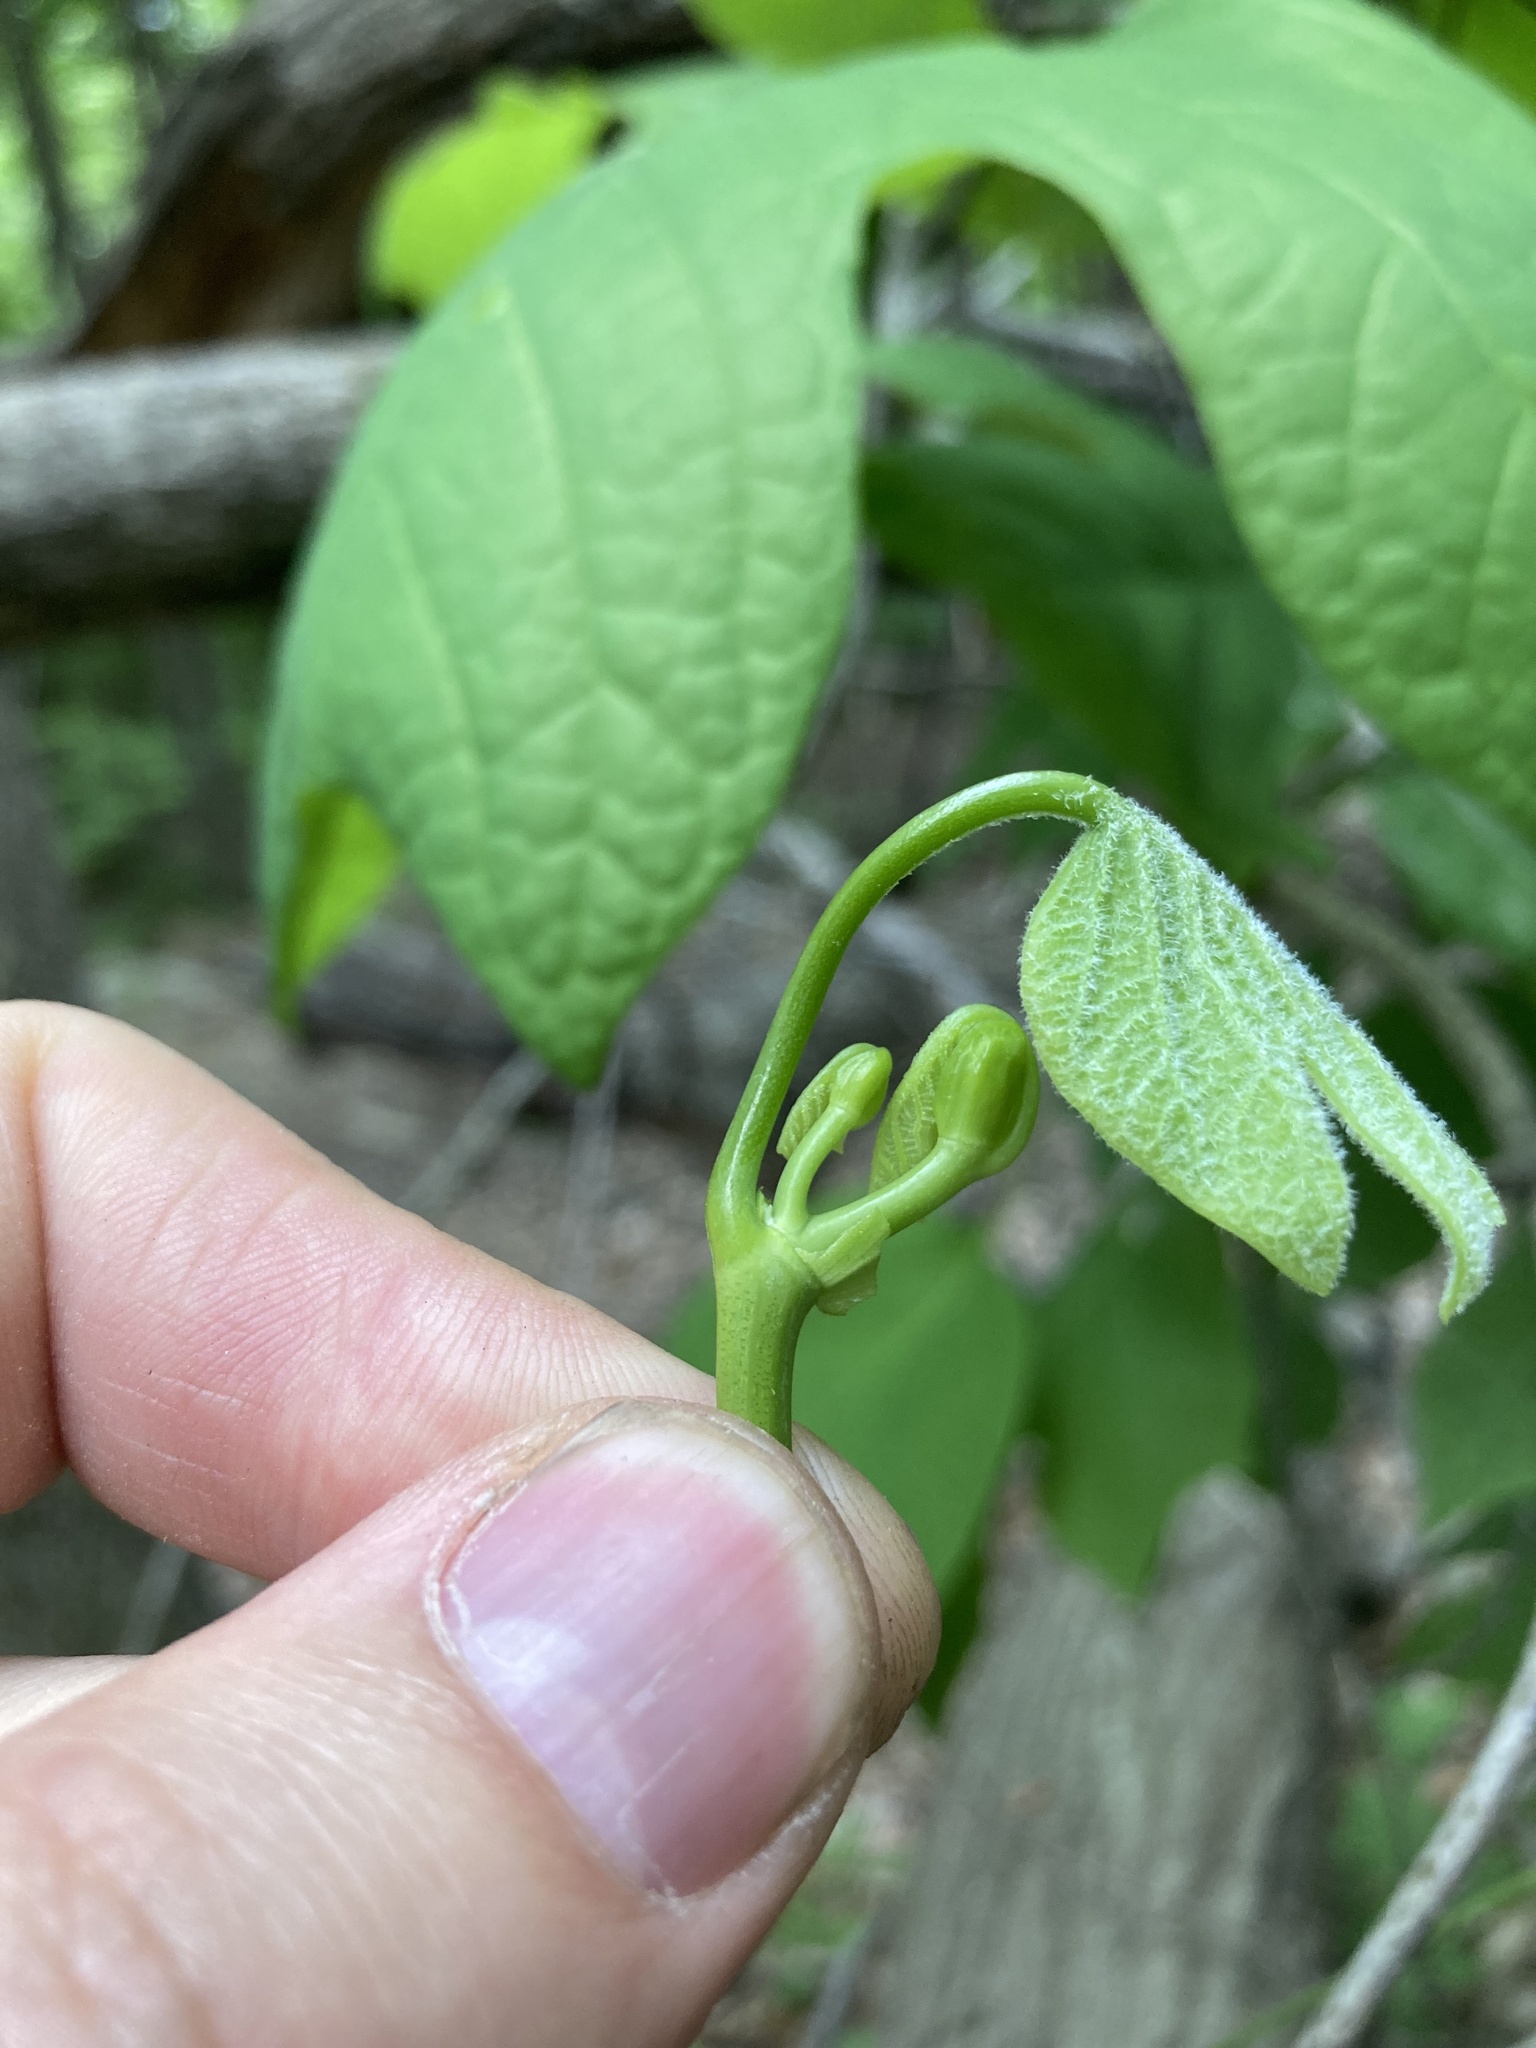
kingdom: Plantae
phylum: Tracheophyta
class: Magnoliopsida
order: Magnoliales
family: Magnoliaceae
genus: Liriodendron
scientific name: Liriodendron tulipifera
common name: Tulip tree
